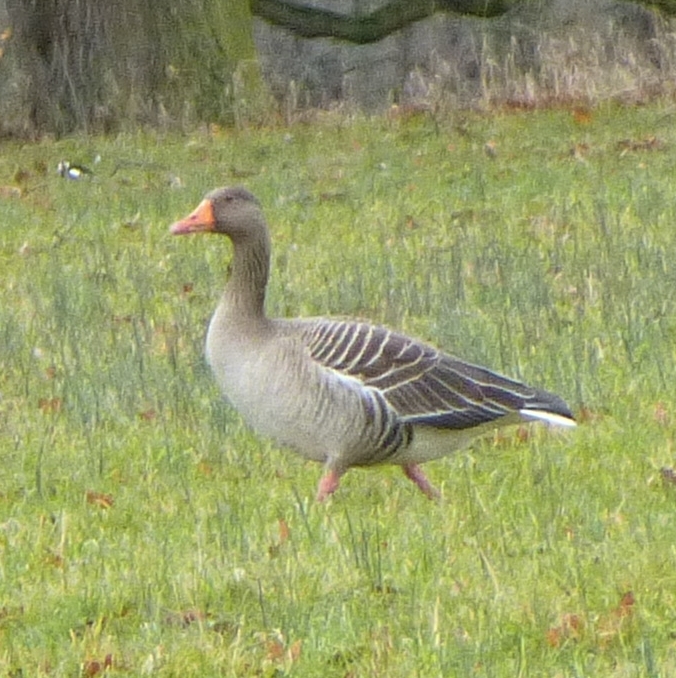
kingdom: Animalia
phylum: Chordata
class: Aves
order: Anseriformes
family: Anatidae
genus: Anser
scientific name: Anser anser
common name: Greylag goose
